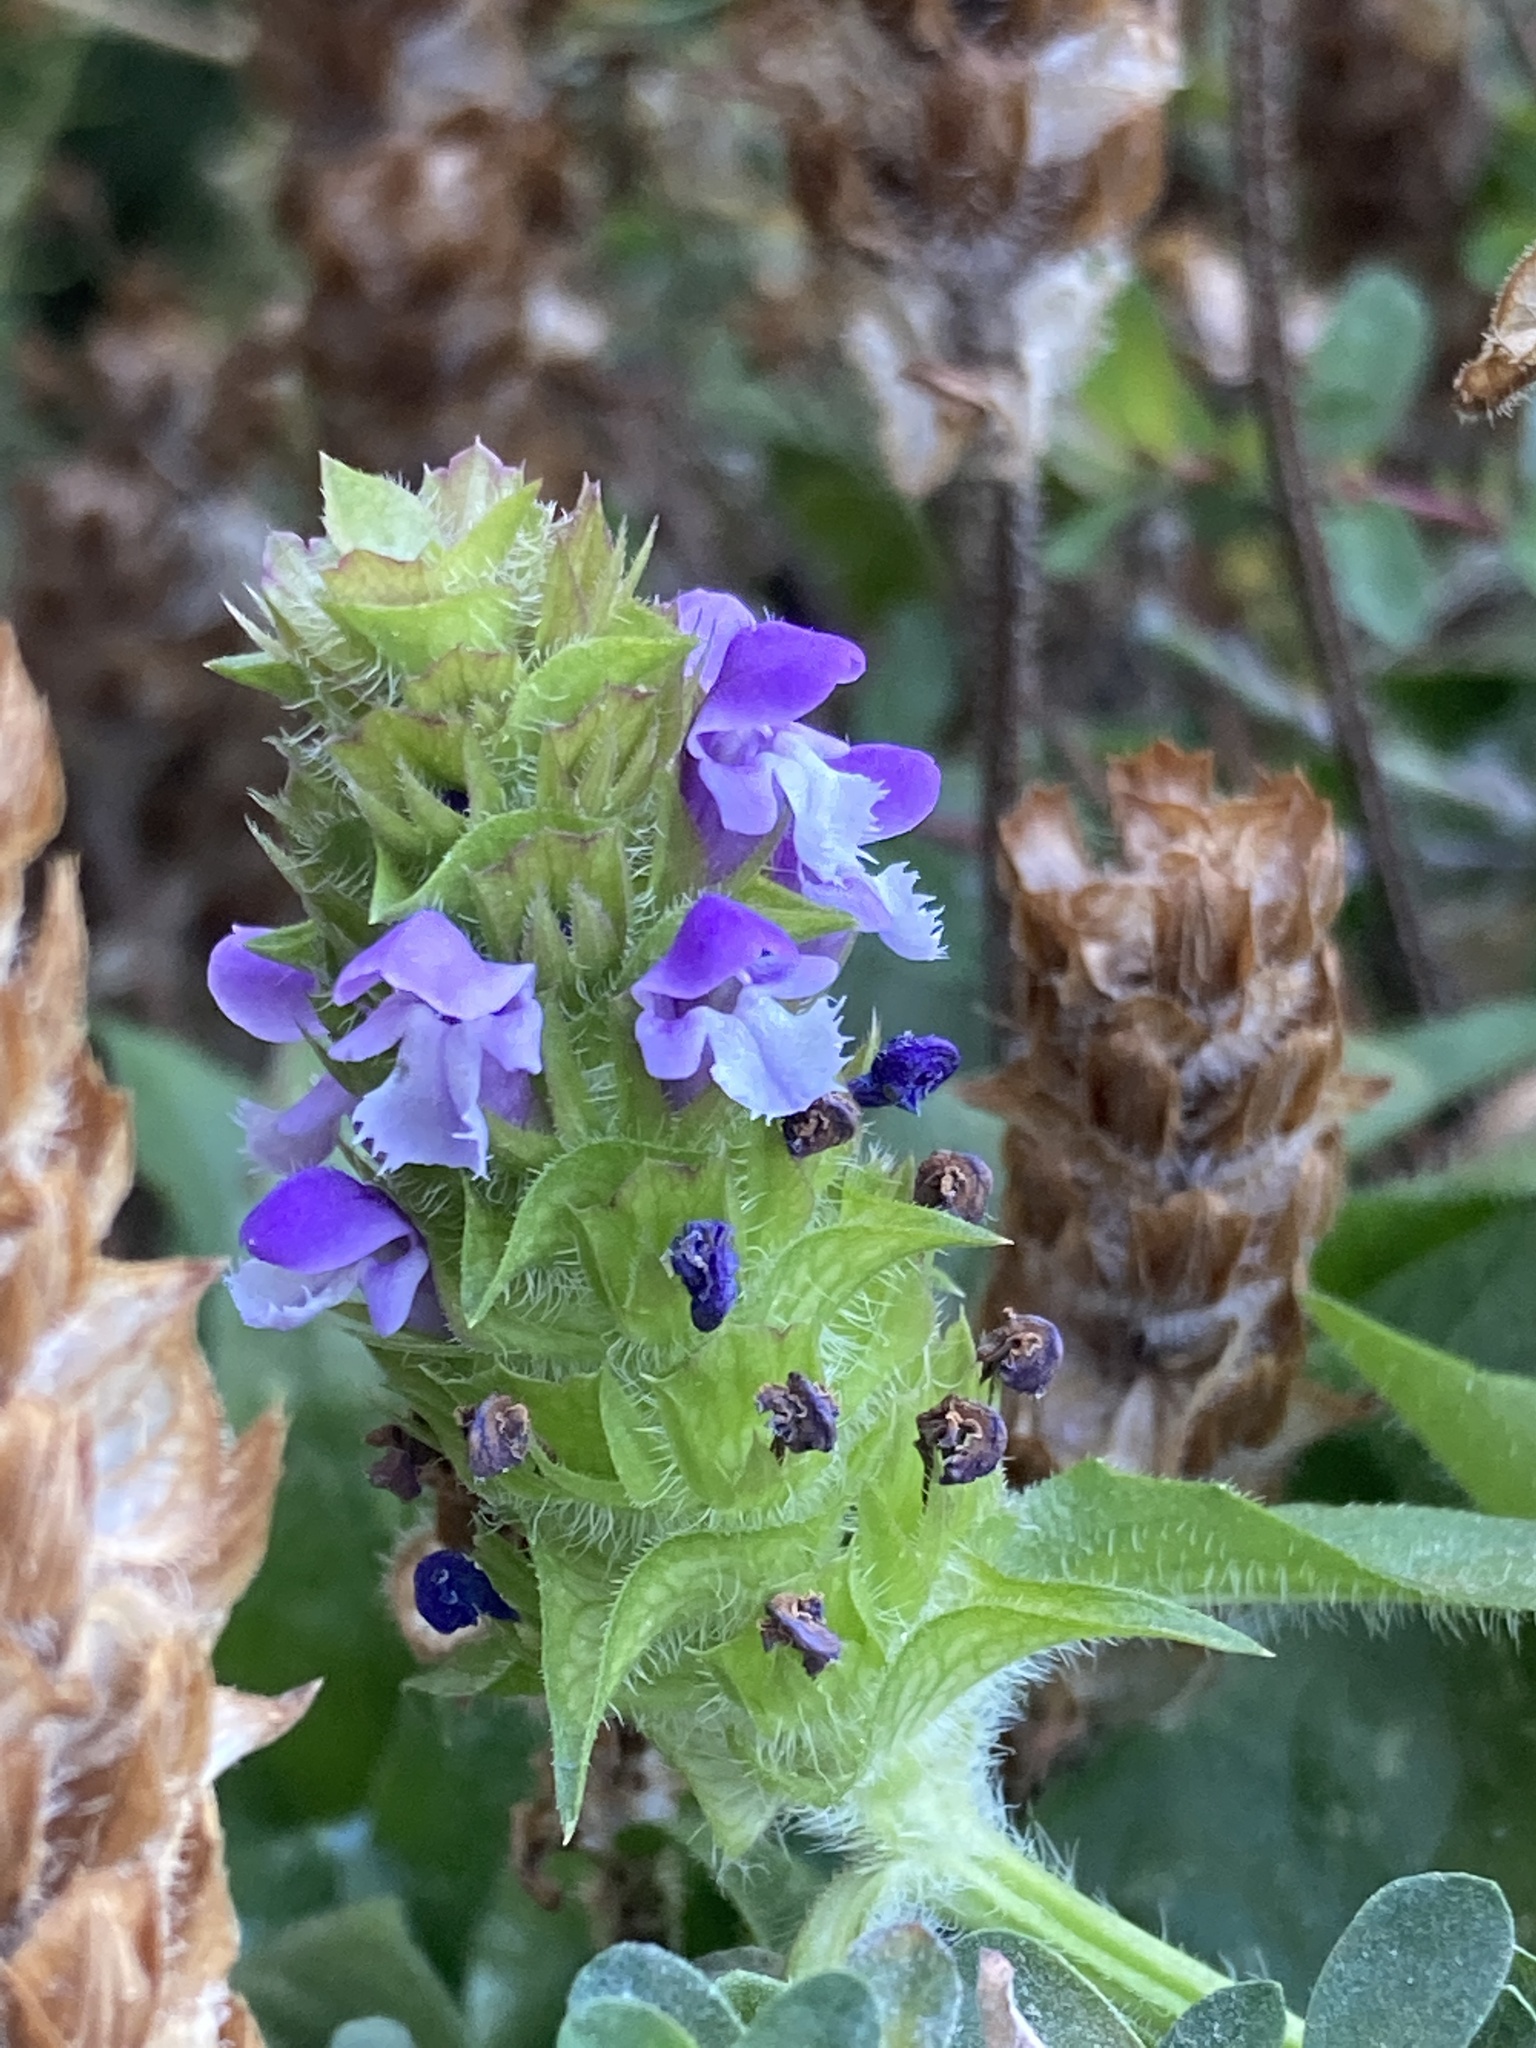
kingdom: Plantae
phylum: Tracheophyta
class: Magnoliopsida
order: Lamiales
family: Lamiaceae
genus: Prunella
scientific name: Prunella vulgaris
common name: Heal-all
